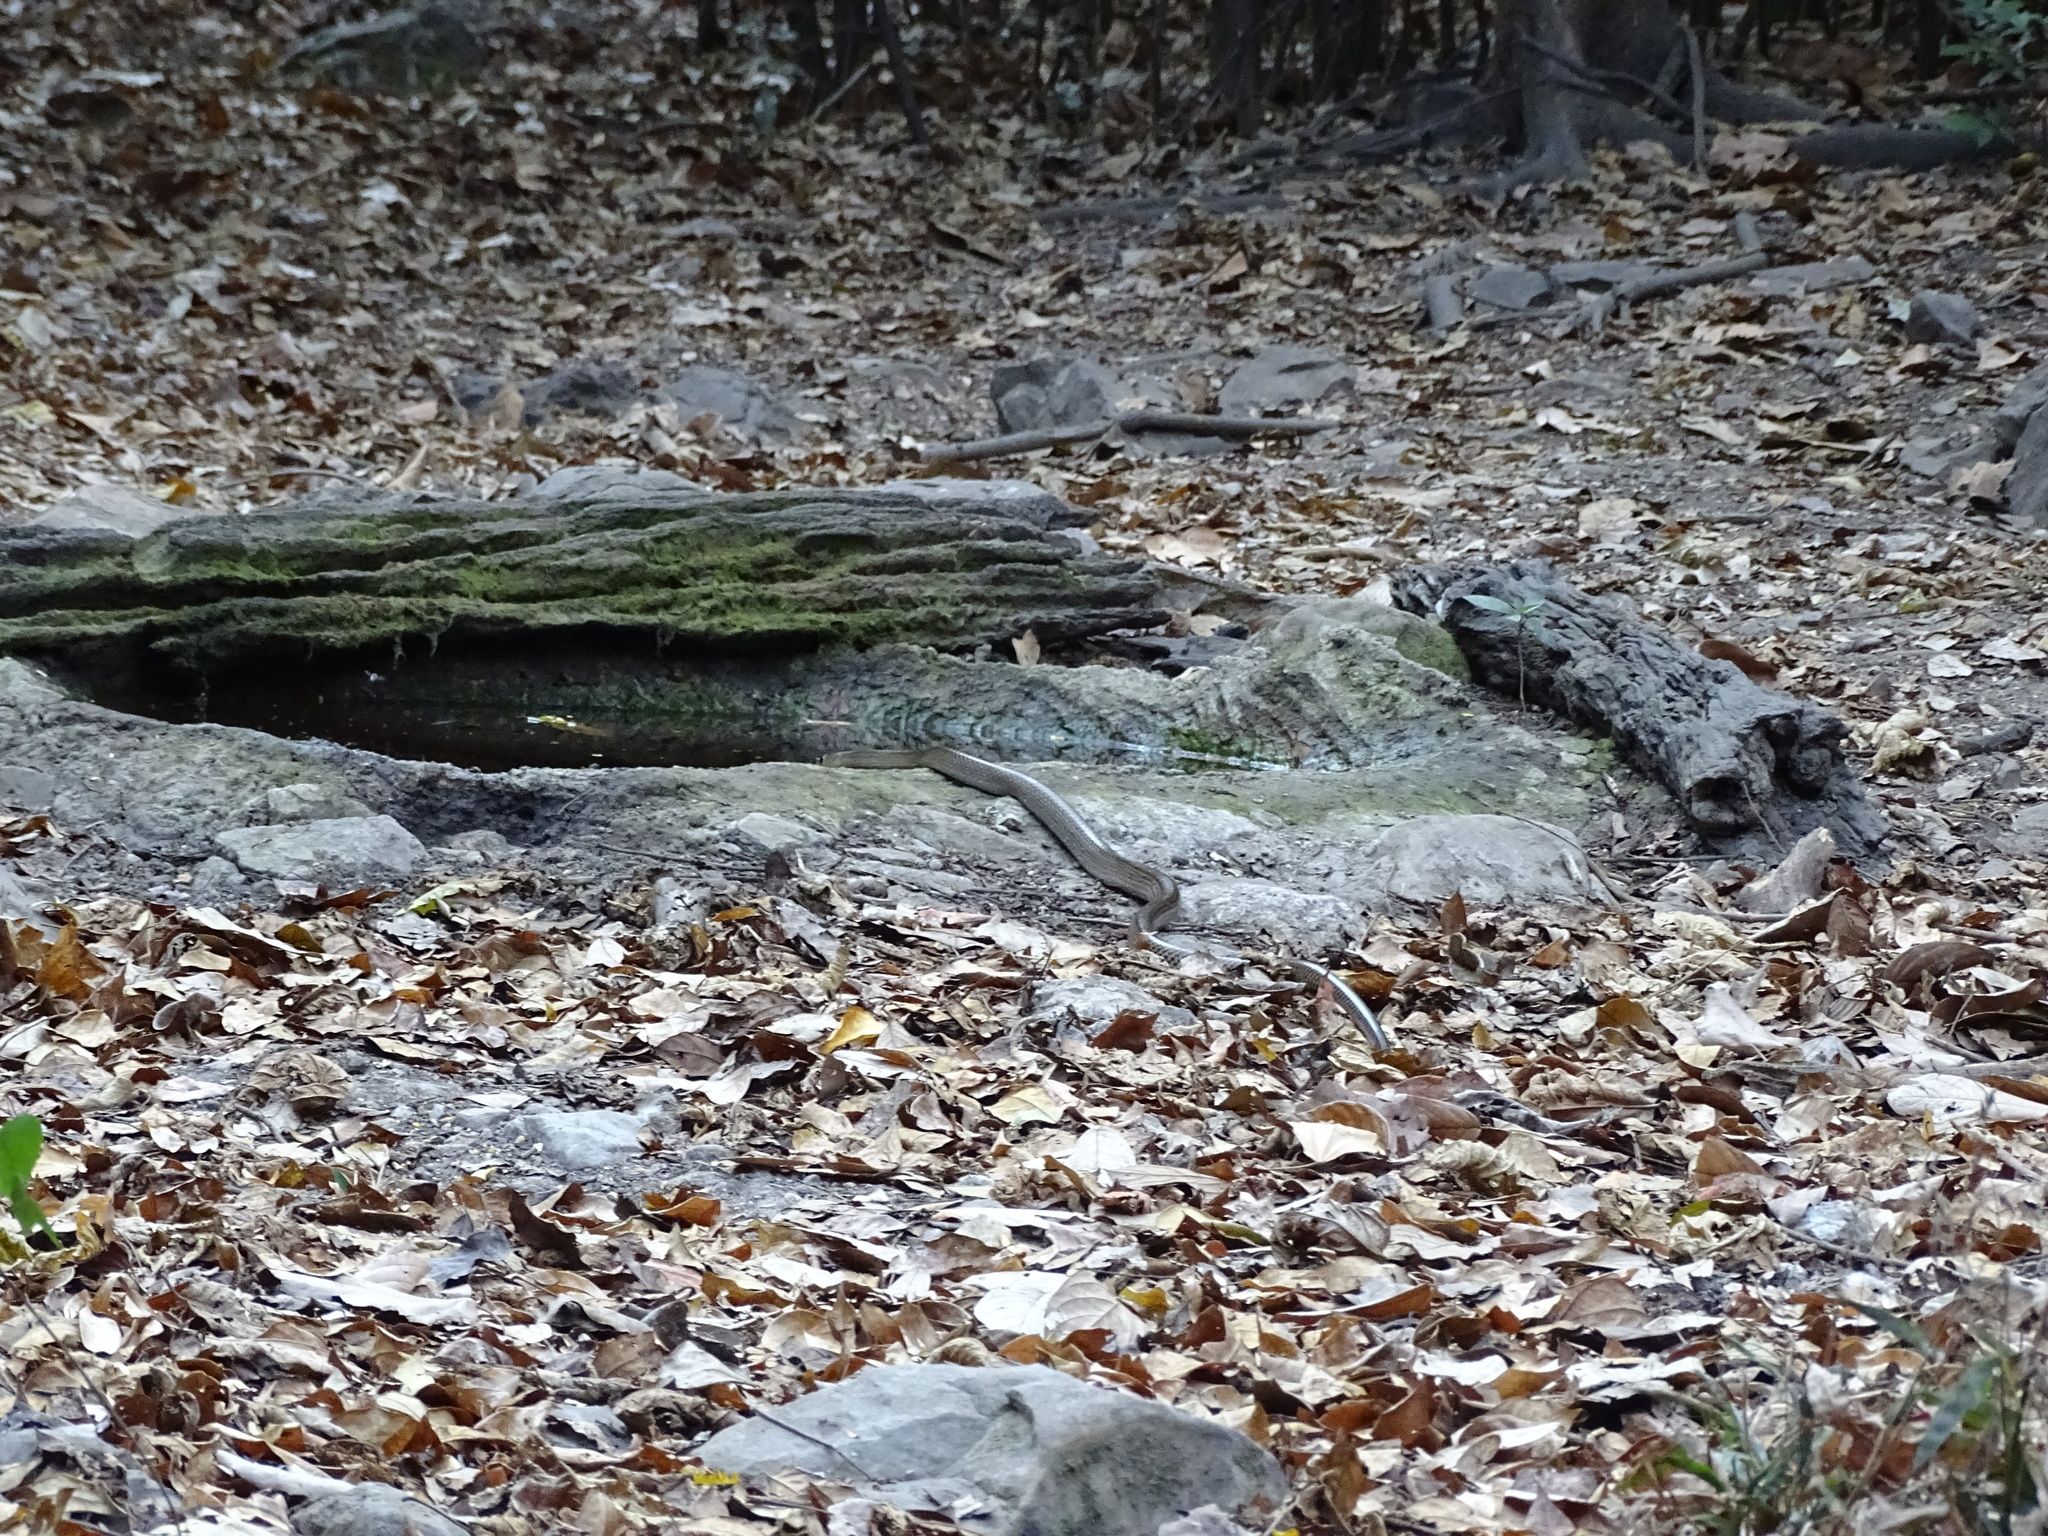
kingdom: Animalia
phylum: Chordata
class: Squamata
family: Colubridae
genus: Ptyas
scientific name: Ptyas korros
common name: Indo-chinese rat snake
